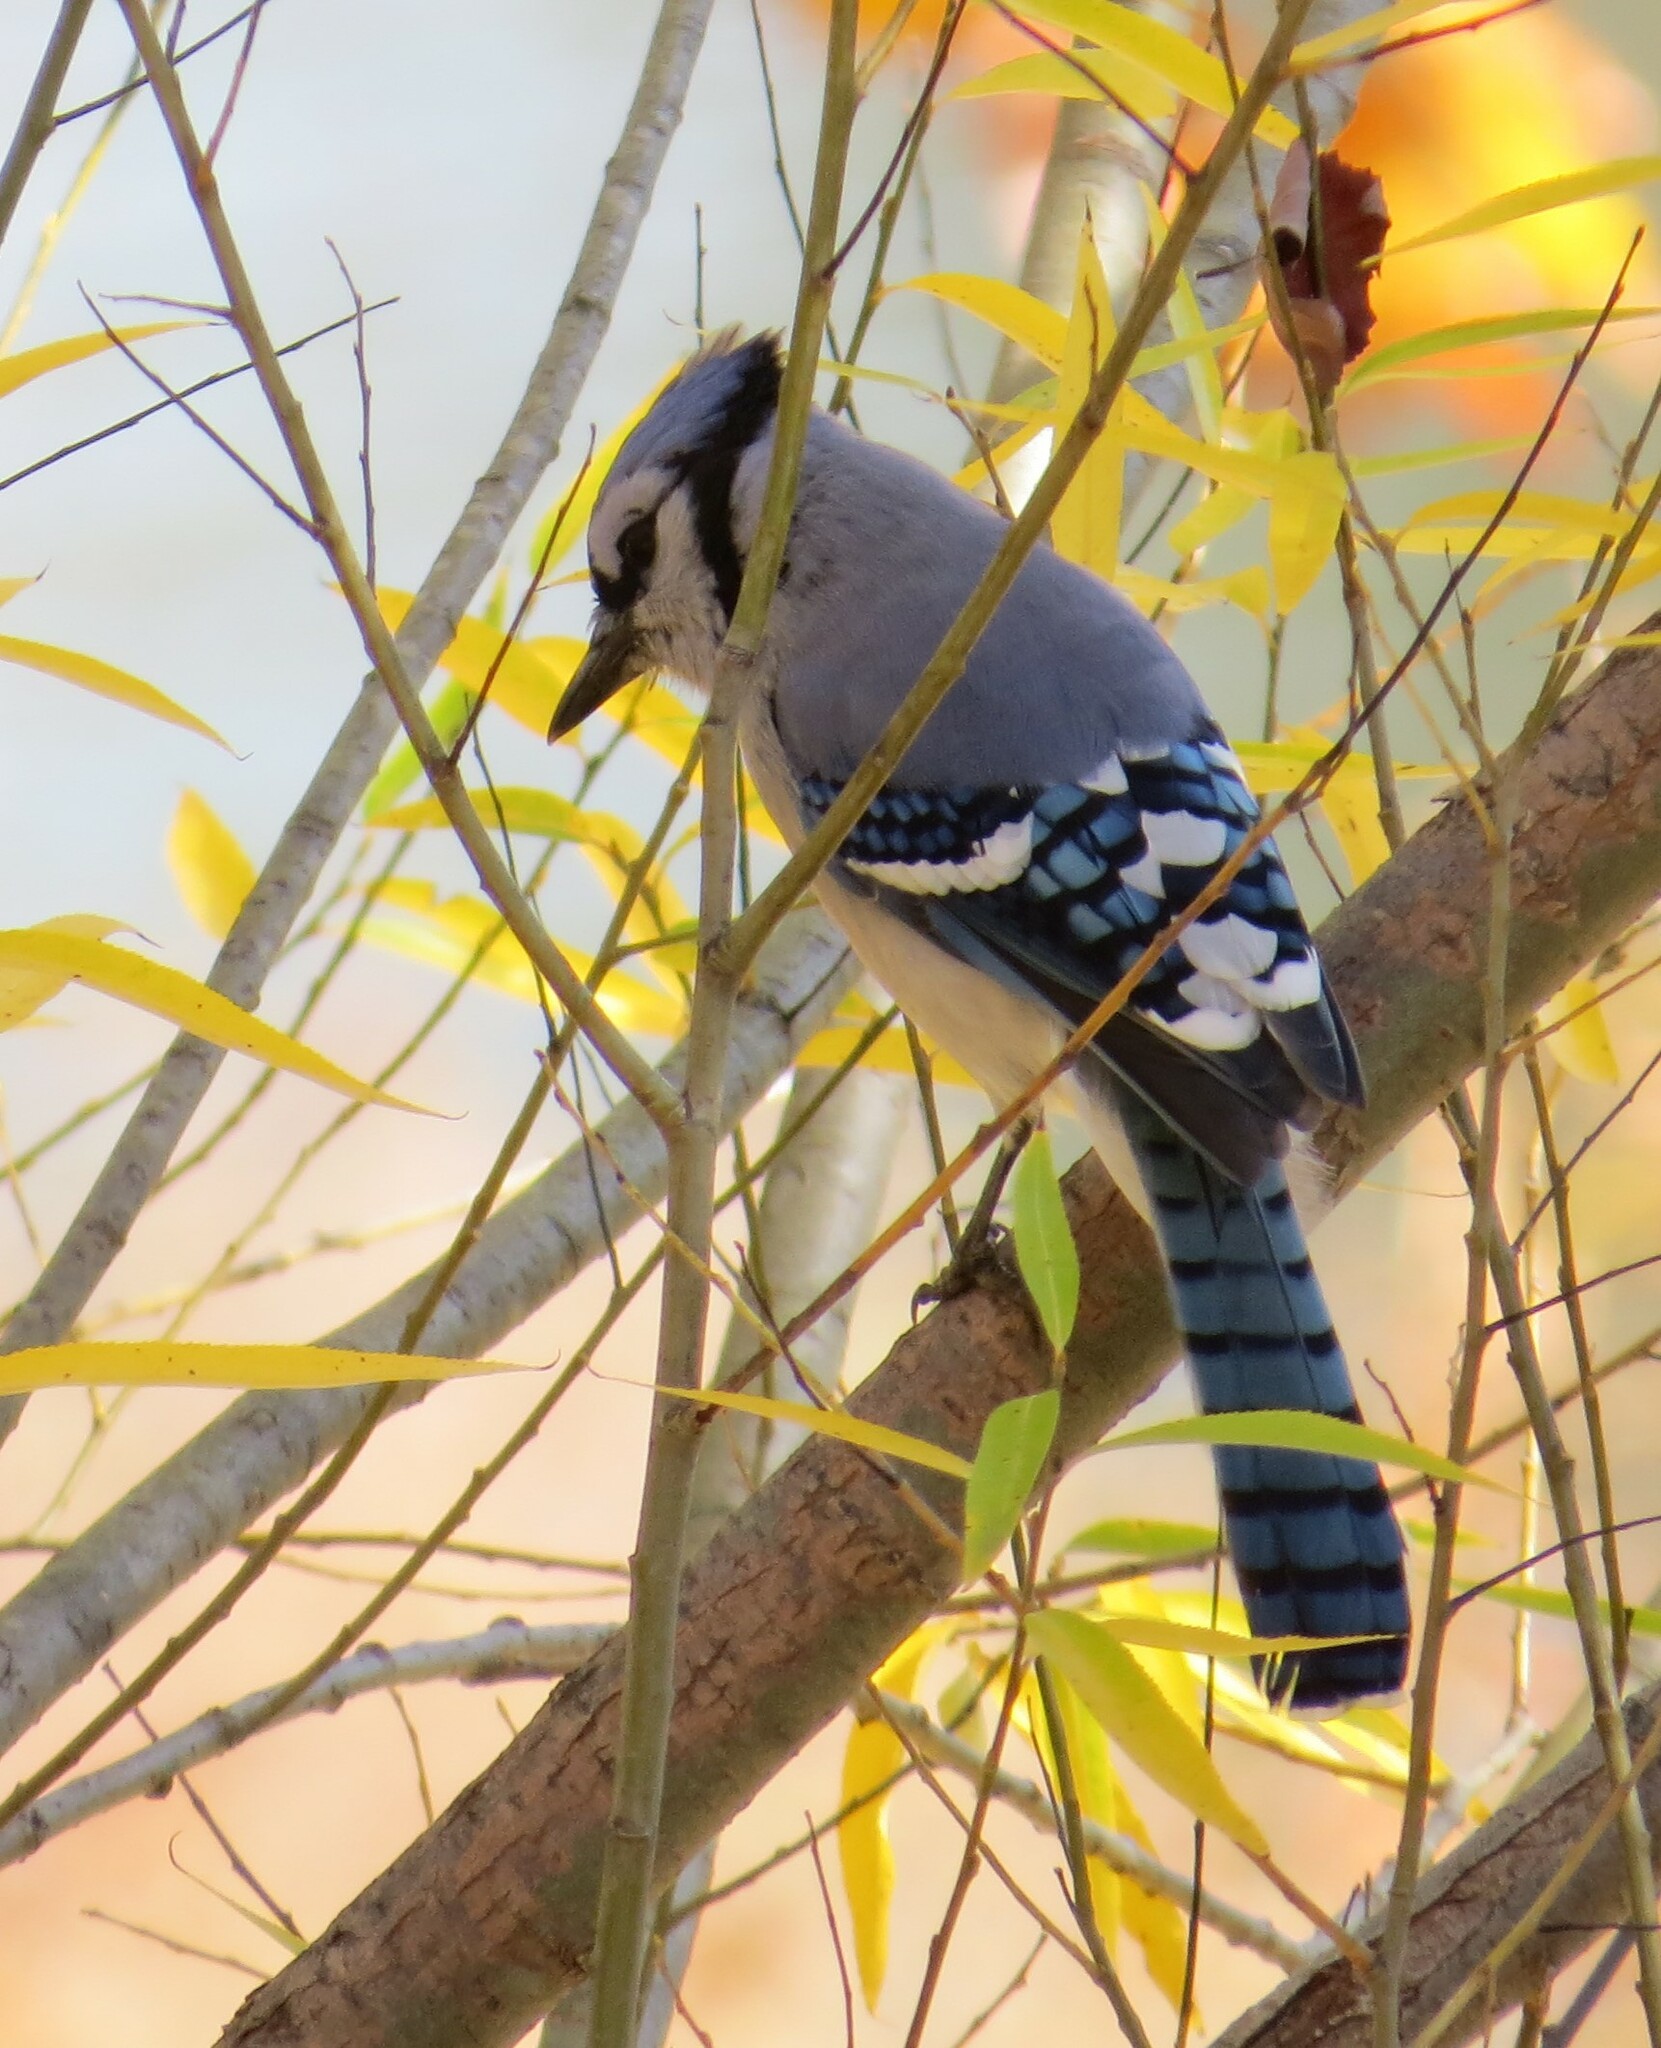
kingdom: Animalia
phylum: Chordata
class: Aves
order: Passeriformes
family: Corvidae
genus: Cyanocitta
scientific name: Cyanocitta cristata
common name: Blue jay
